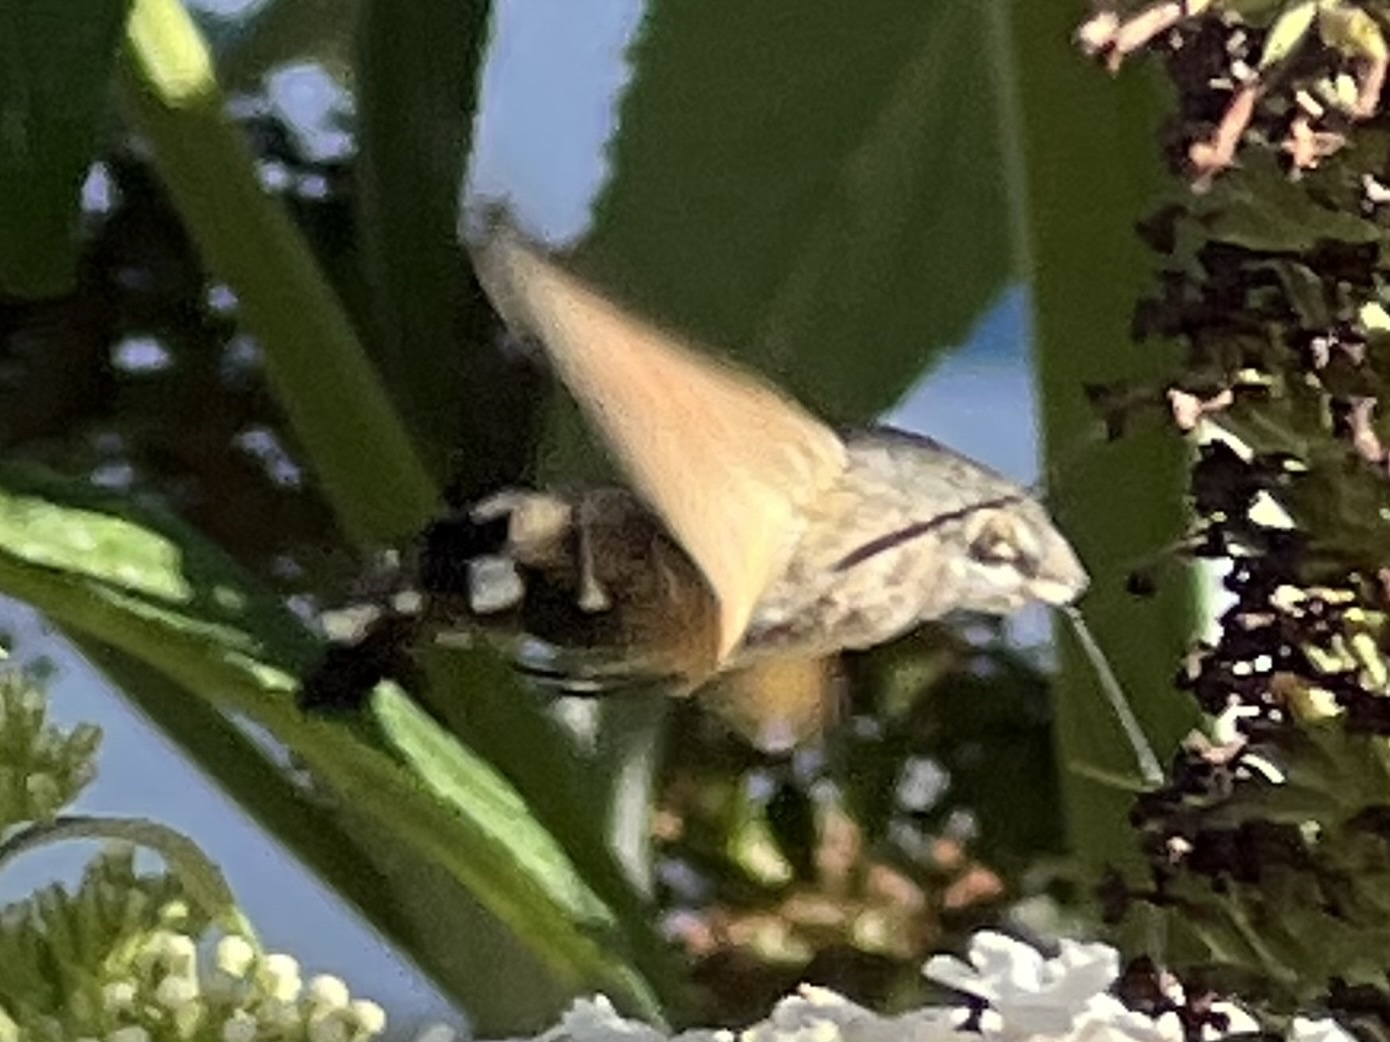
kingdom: Animalia
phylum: Arthropoda
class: Insecta
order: Lepidoptera
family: Sphingidae
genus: Macroglossum
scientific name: Macroglossum stellatarum
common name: Humming-bird hawk-moth
